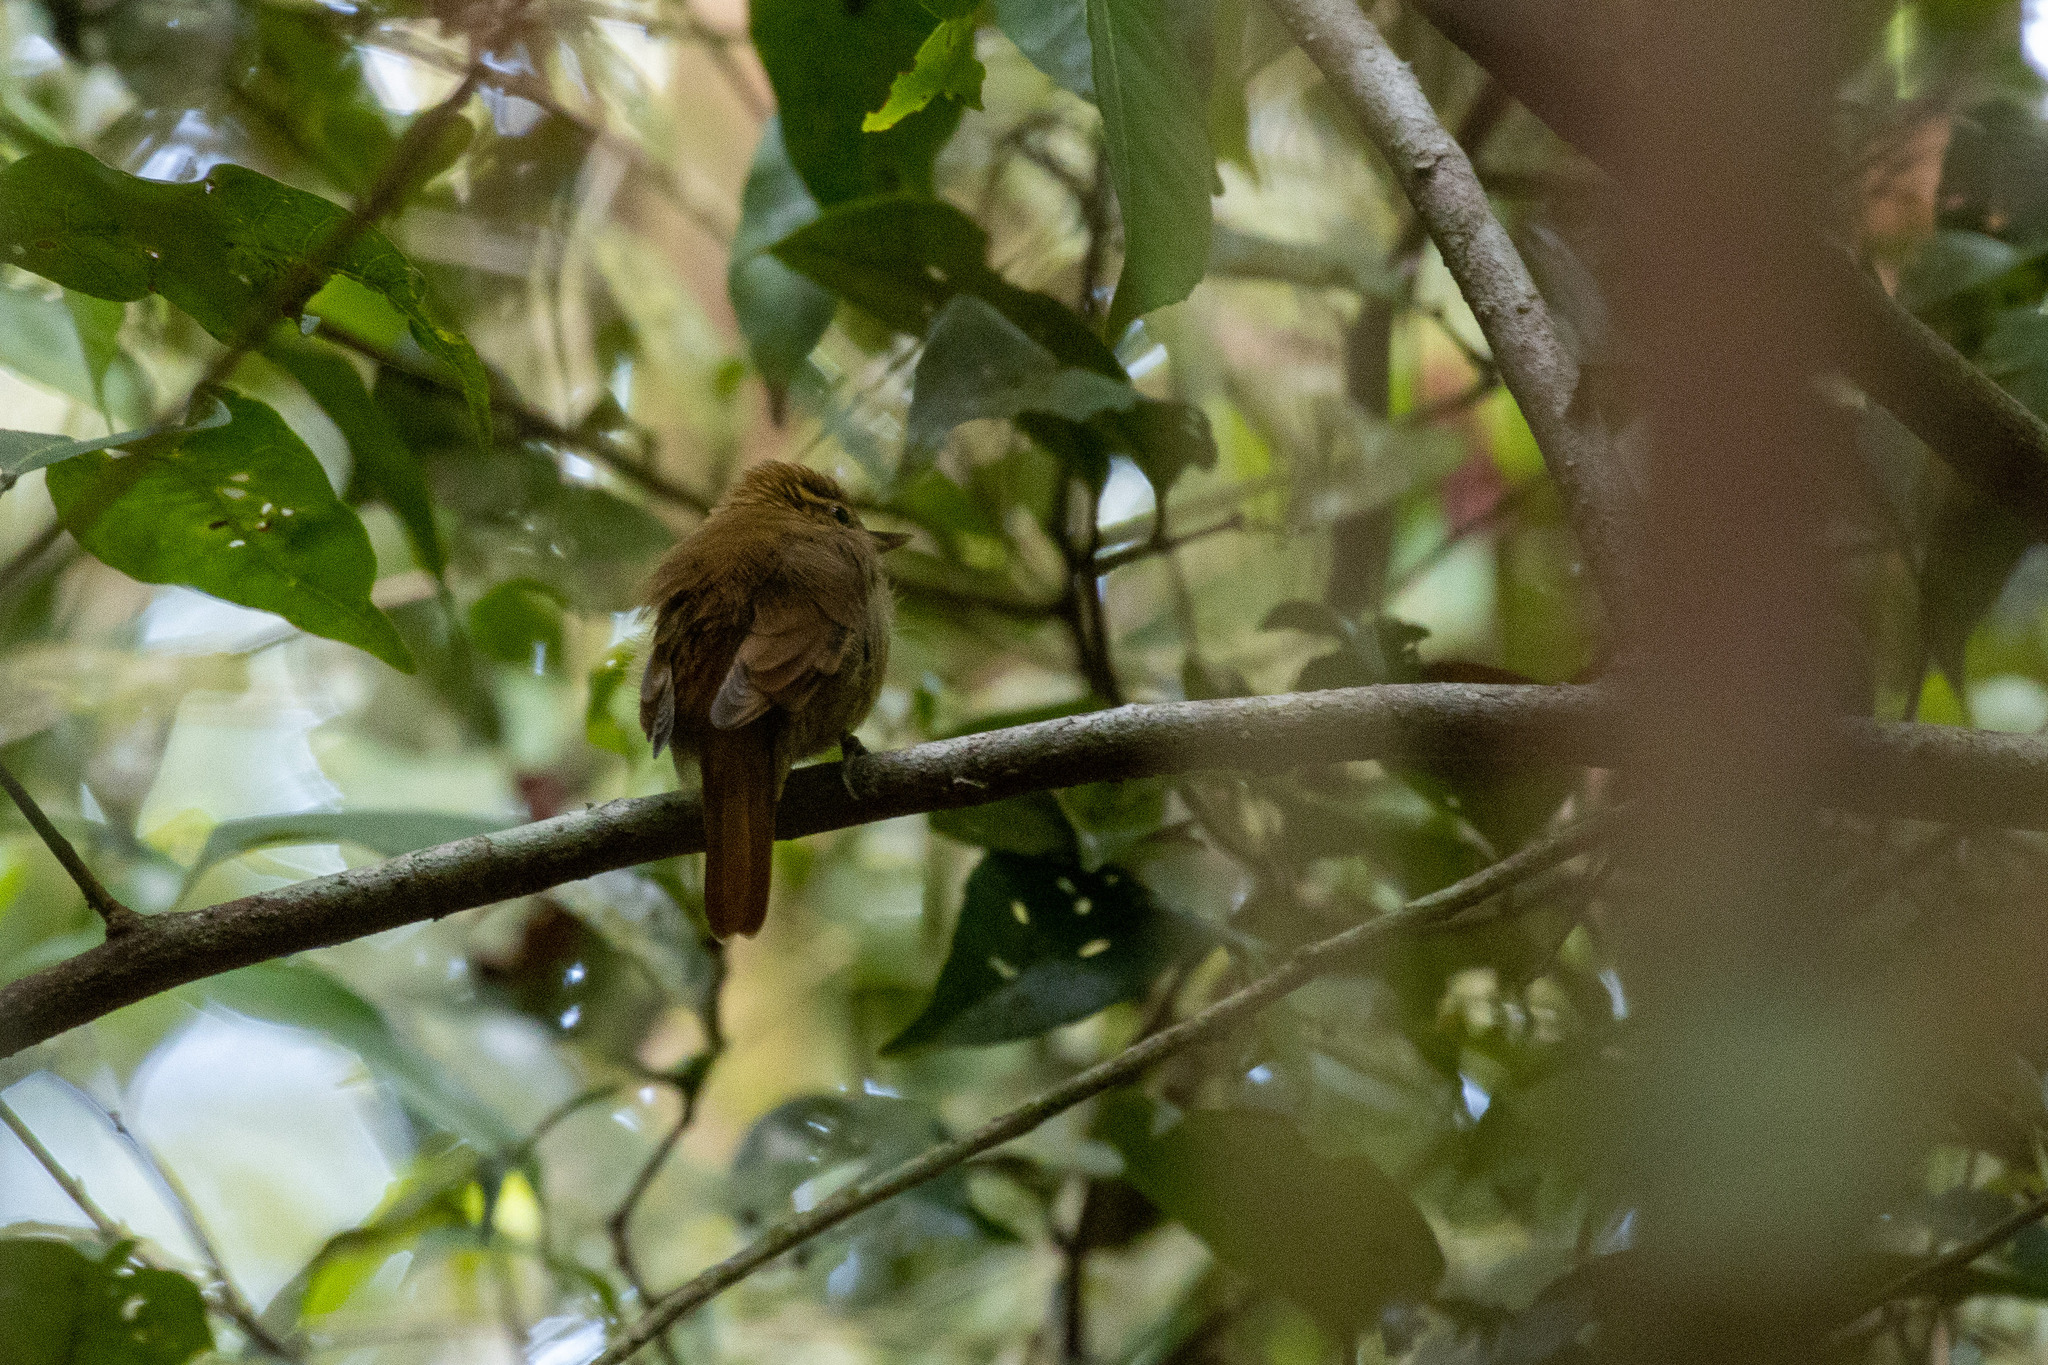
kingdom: Animalia
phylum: Chordata
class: Aves
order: Passeriformes
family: Furnariidae
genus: Xenops
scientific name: Xenops minutus
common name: Plain xenops
